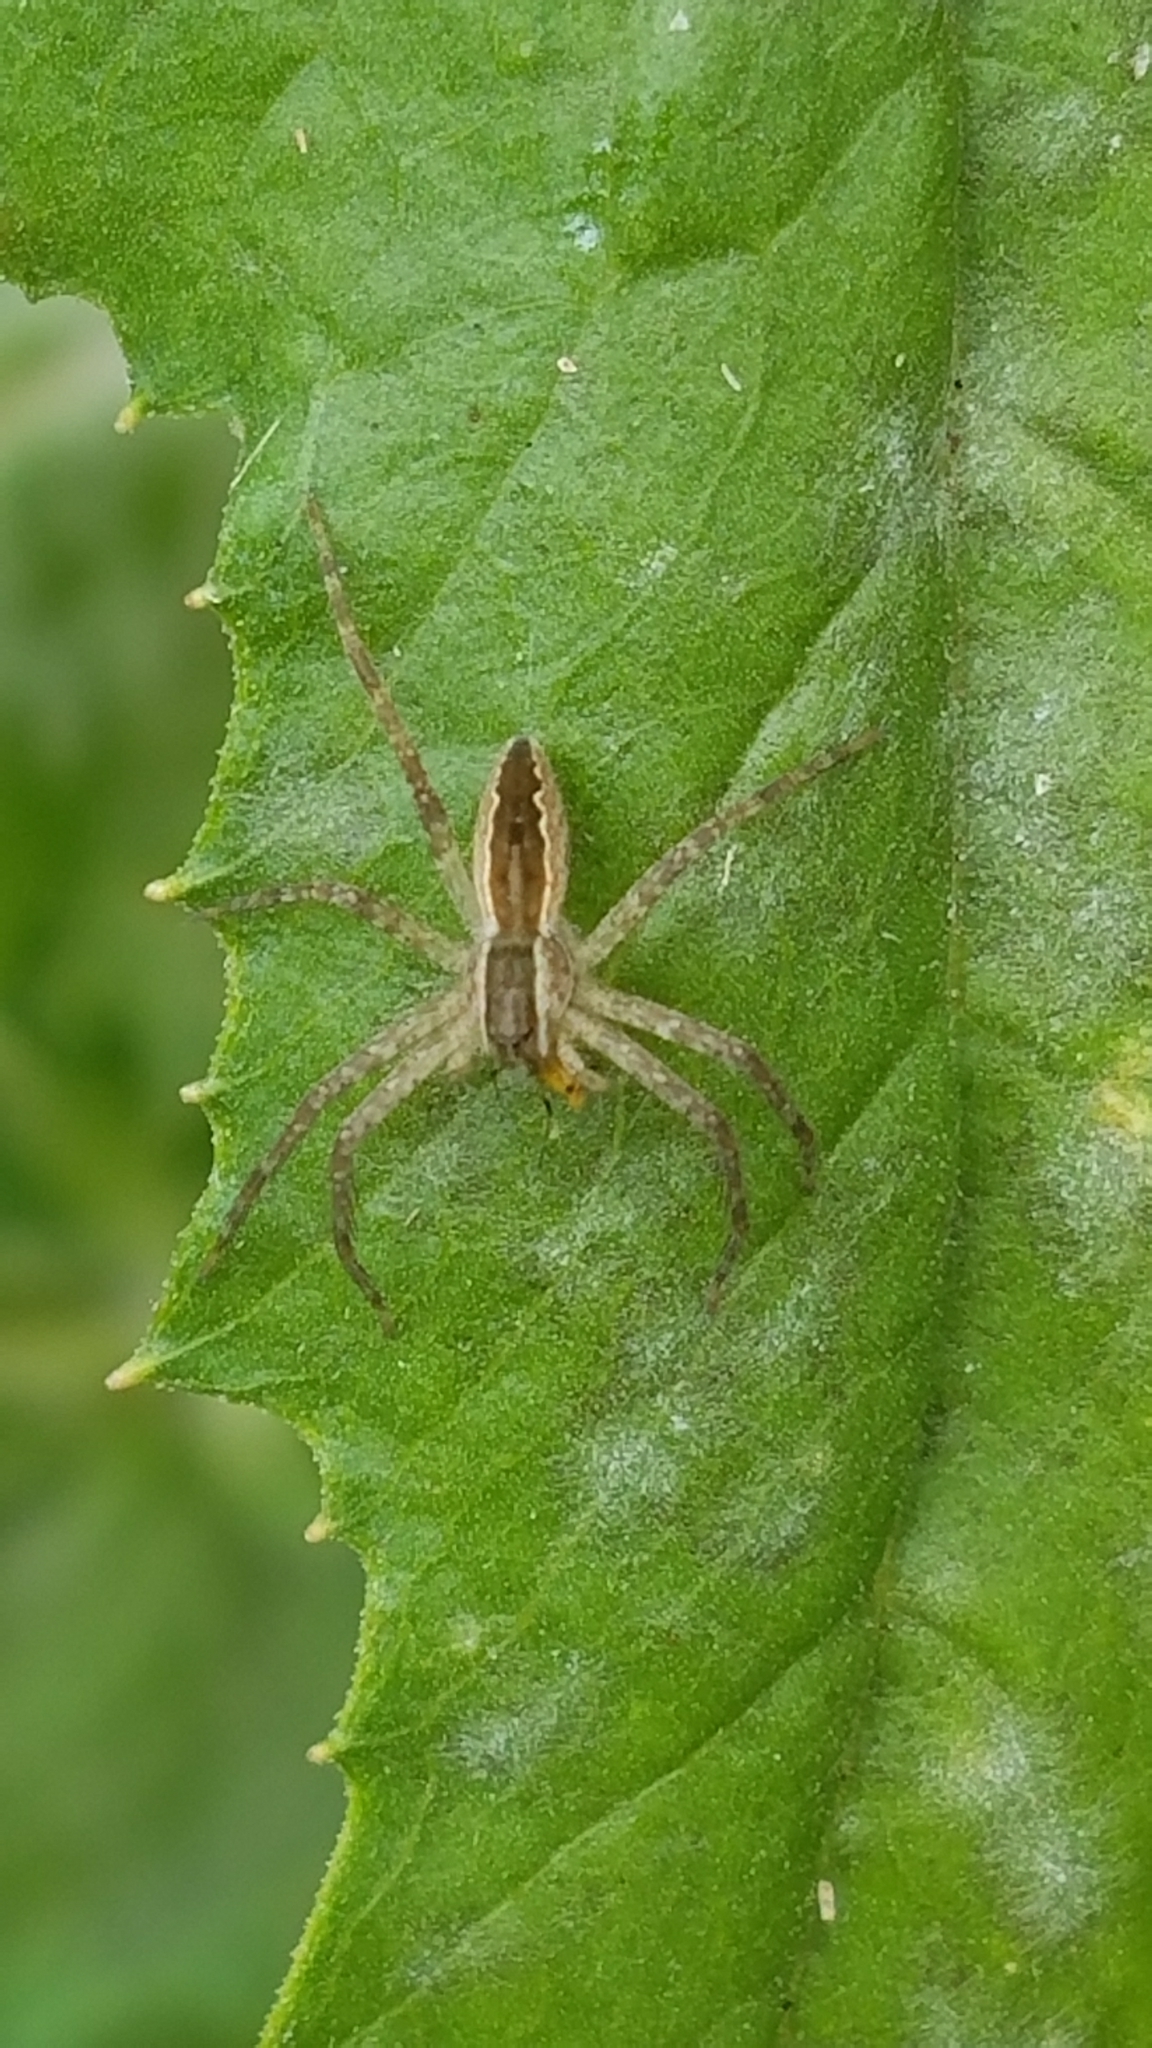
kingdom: Animalia
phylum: Arthropoda
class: Arachnida
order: Araneae
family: Pisauridae
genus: Pisaurina
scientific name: Pisaurina mira
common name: American nursery web spider
